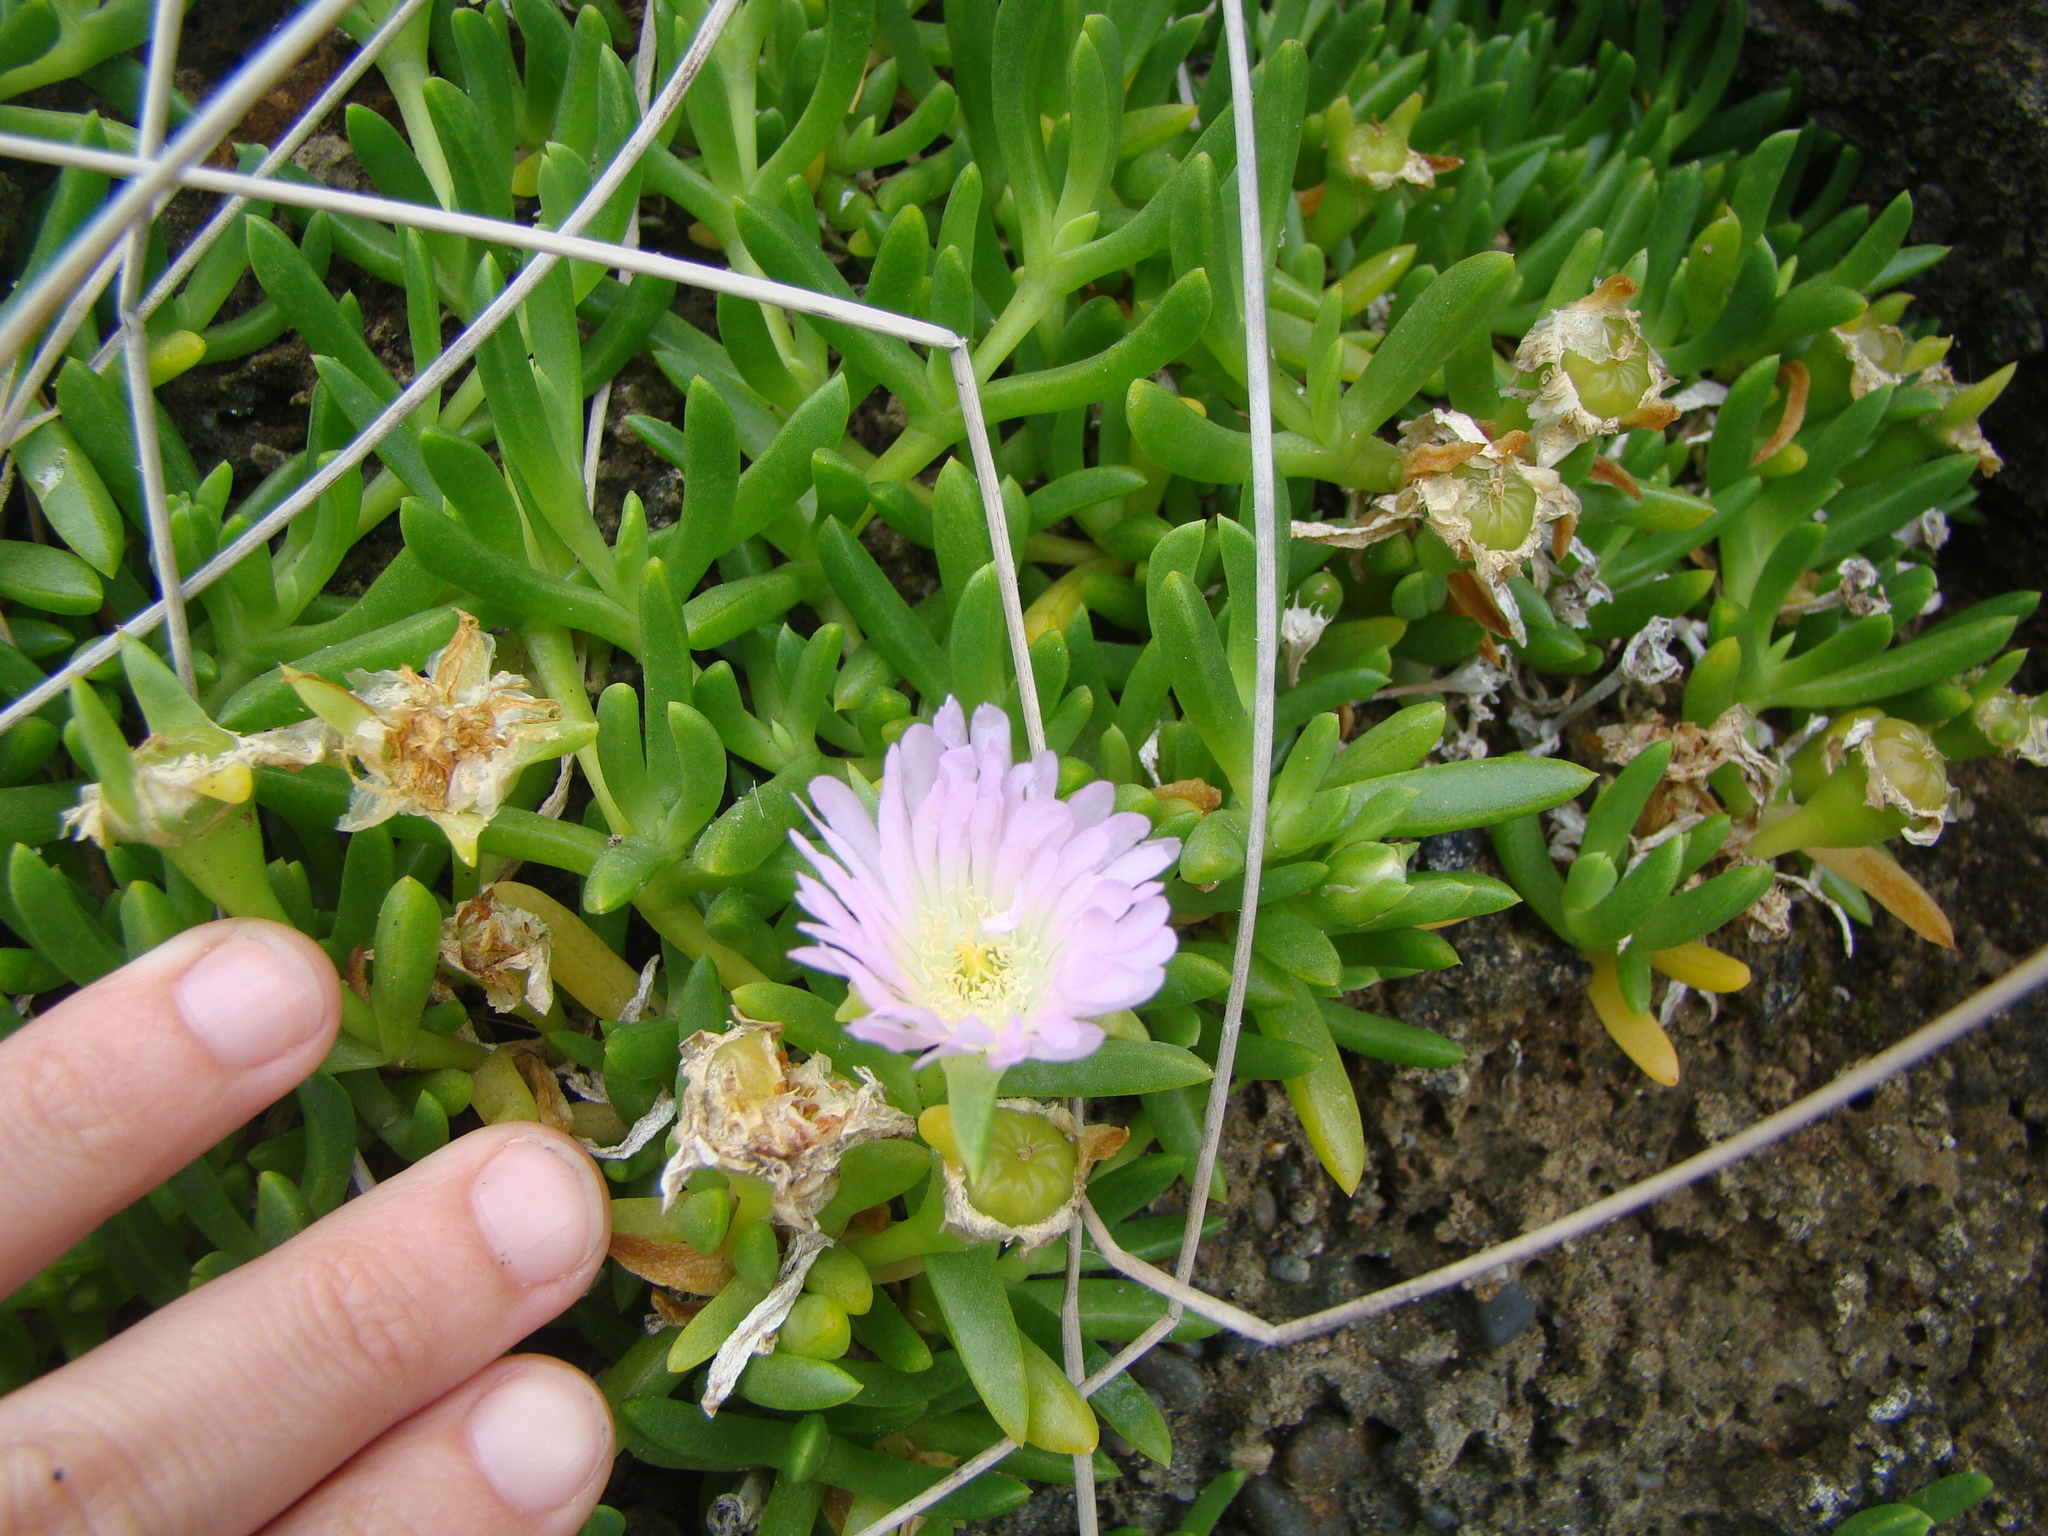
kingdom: Plantae
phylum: Tracheophyta
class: Magnoliopsida
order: Caryophyllales
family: Aizoaceae
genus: Disphyma
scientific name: Disphyma australe
